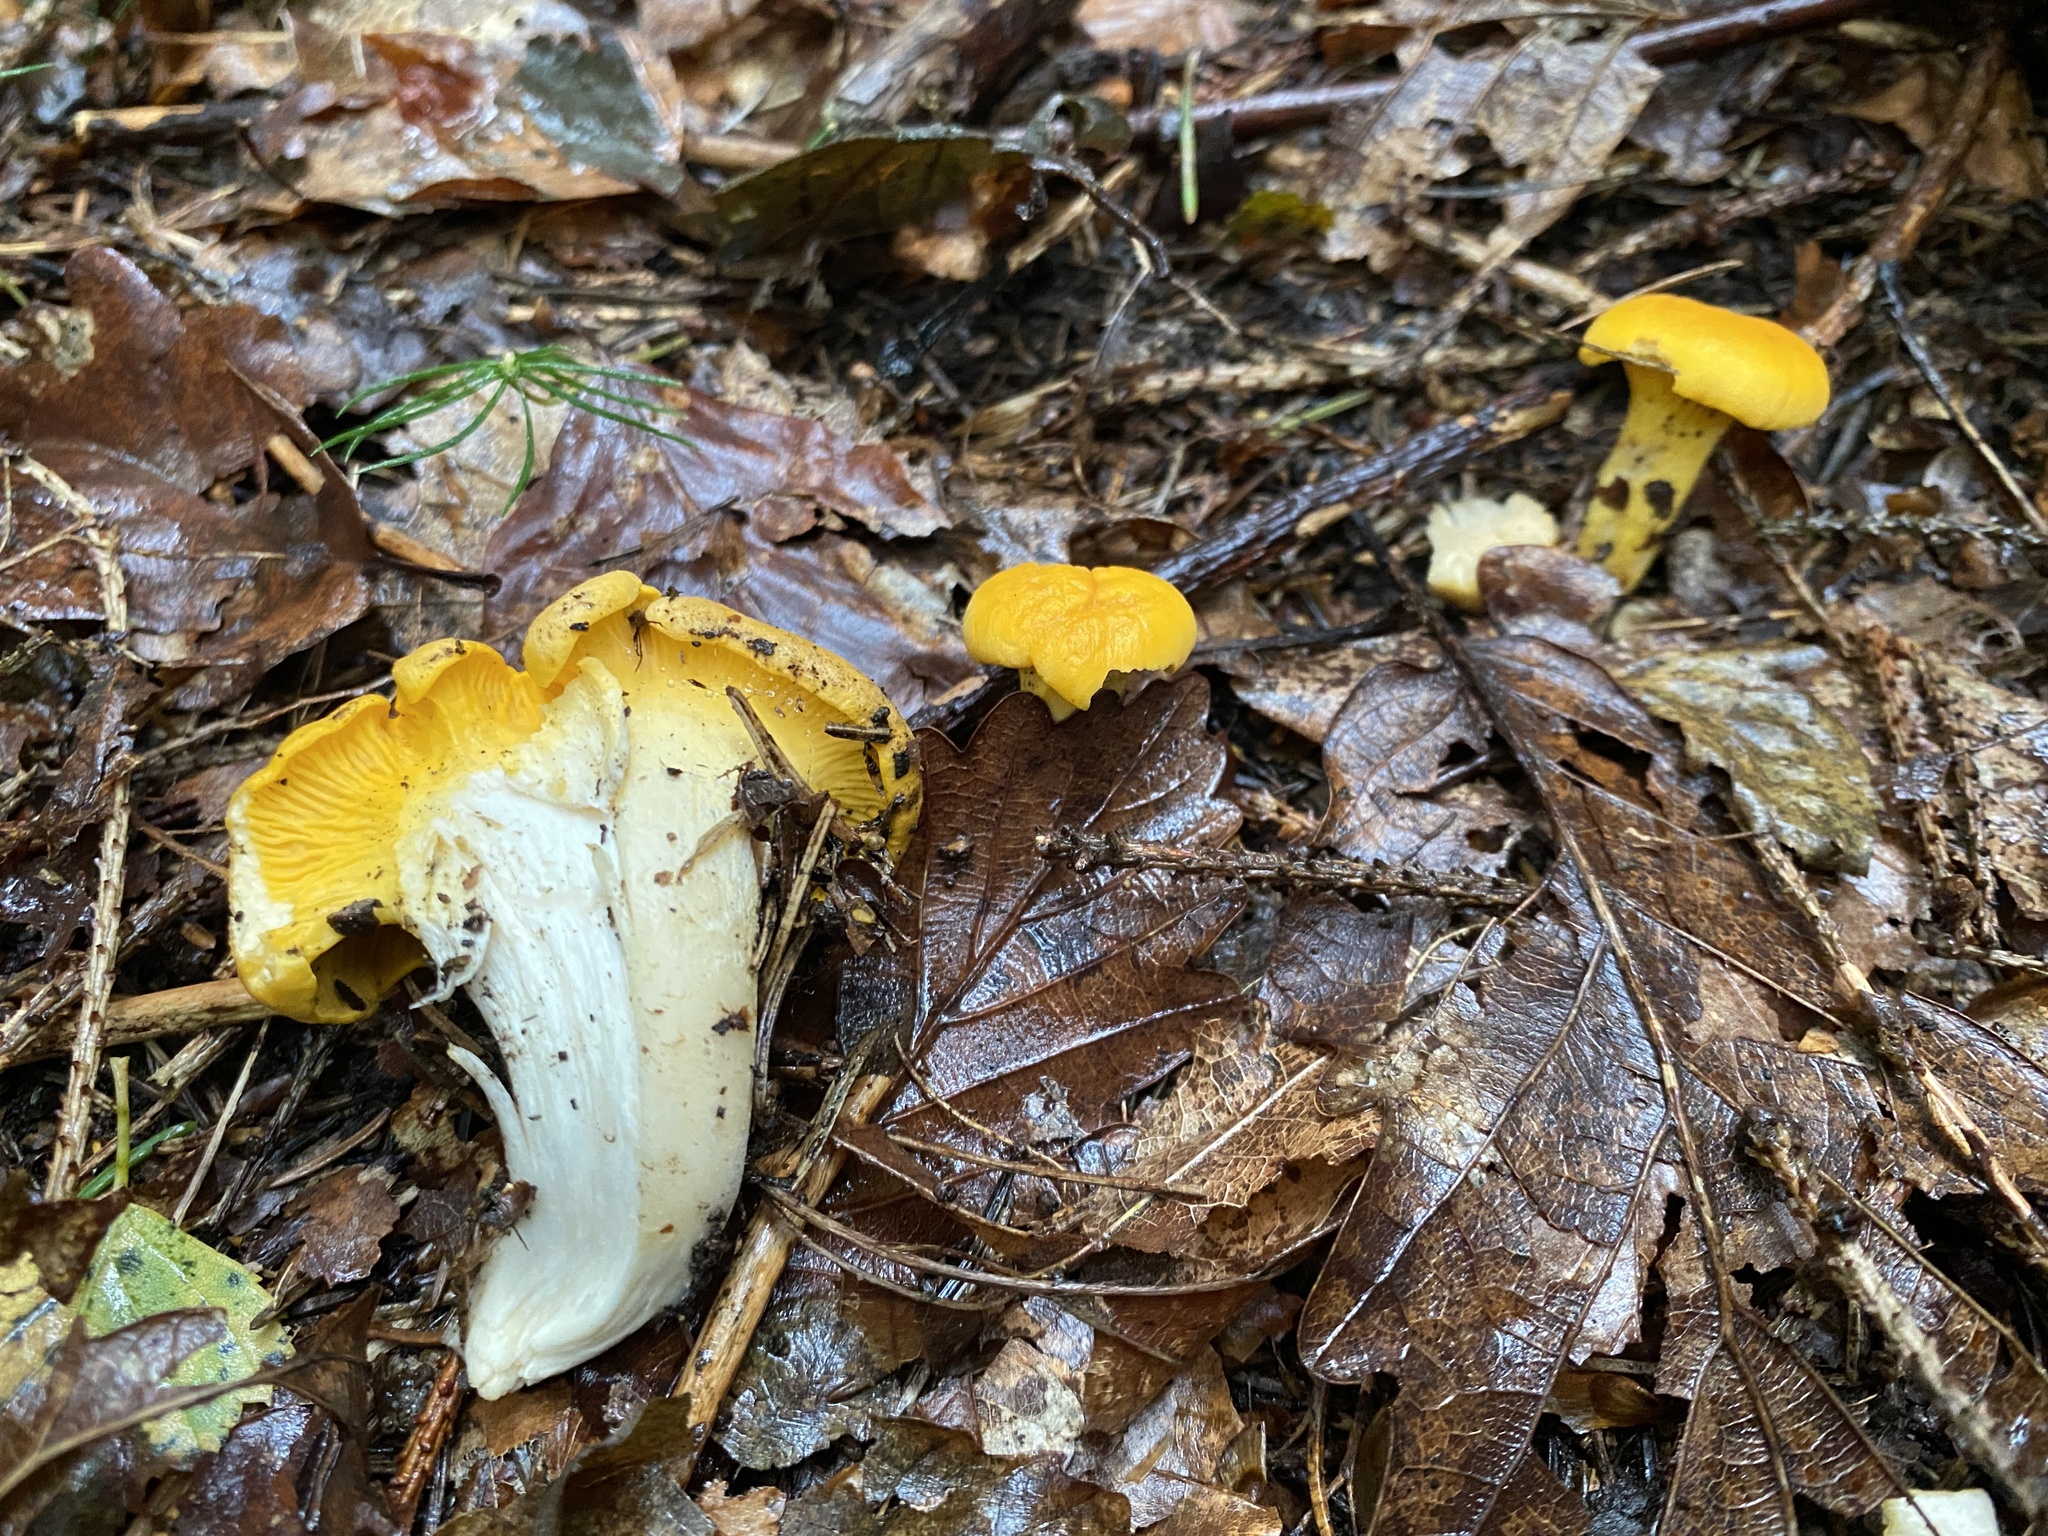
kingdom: Fungi
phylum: Basidiomycota
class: Agaricomycetes
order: Cantharellales
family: Hydnaceae
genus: Cantharellus
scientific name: Cantharellus cibarius
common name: Chanterelle
